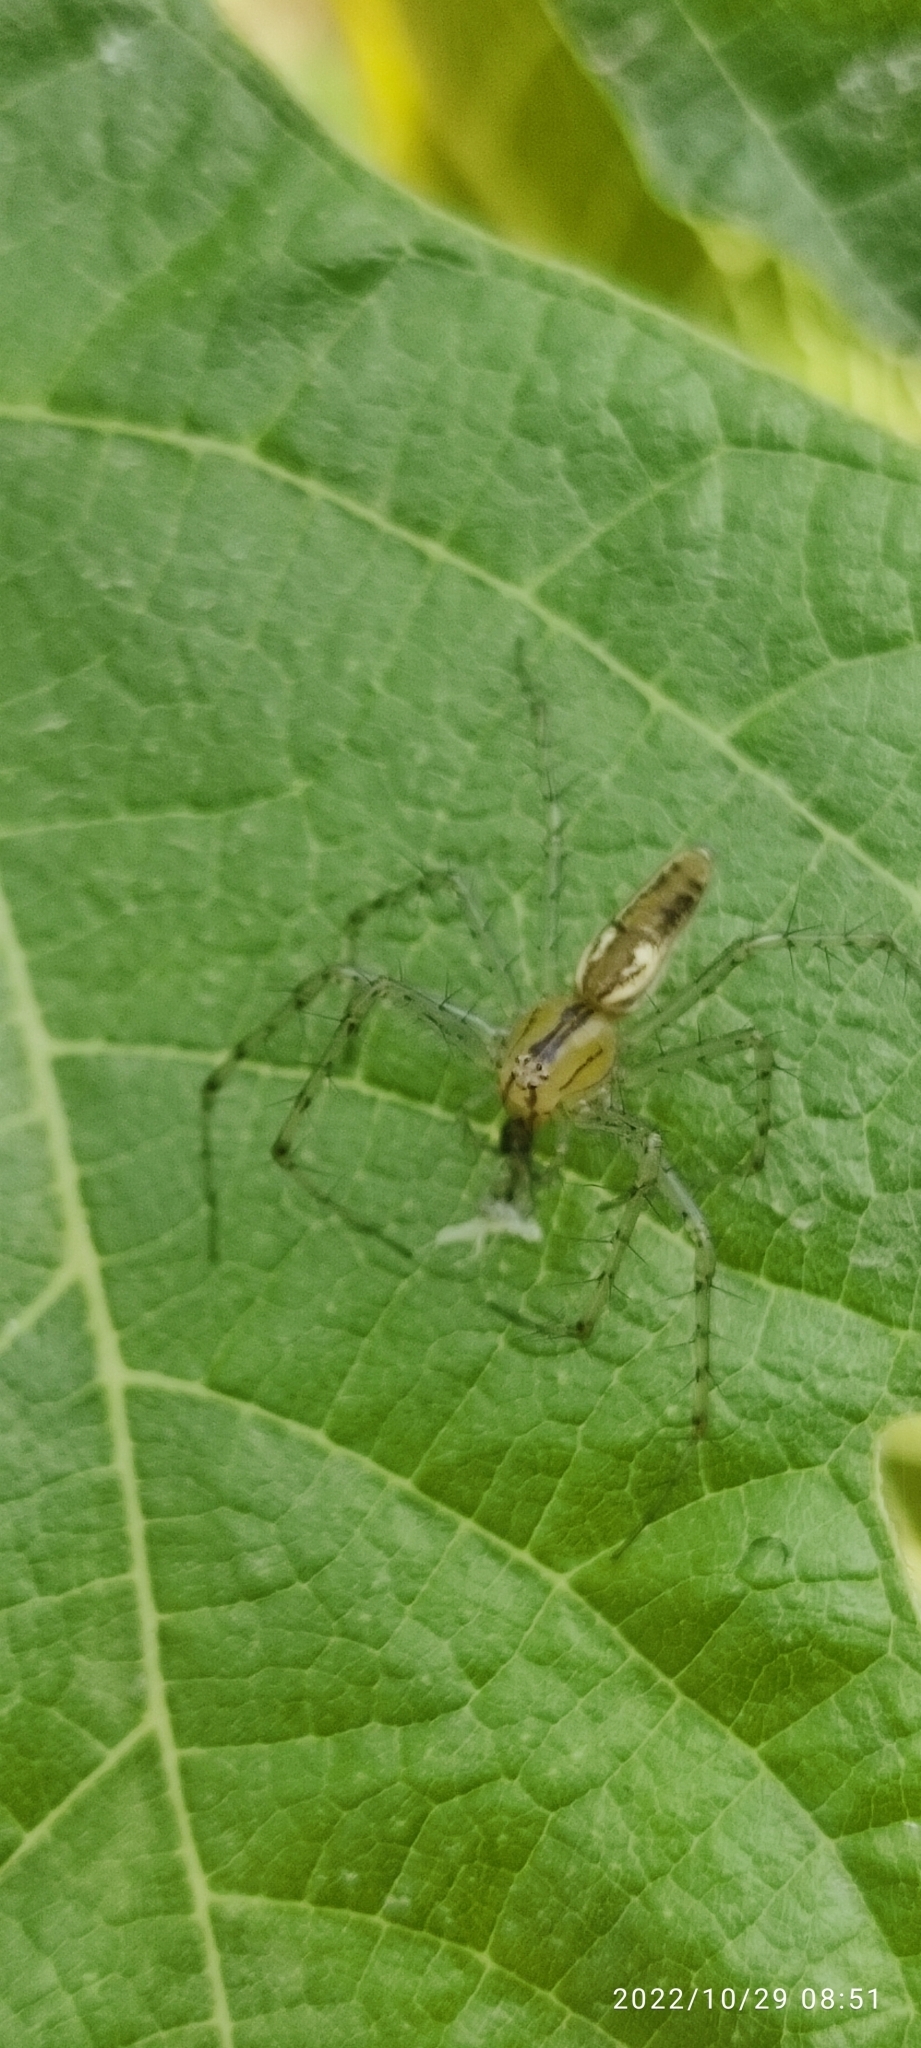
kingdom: Animalia
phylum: Arthropoda
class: Arachnida
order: Araneae
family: Oxyopidae
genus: Peucetia
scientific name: Peucetia rubrolineata
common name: Lynx spiders
